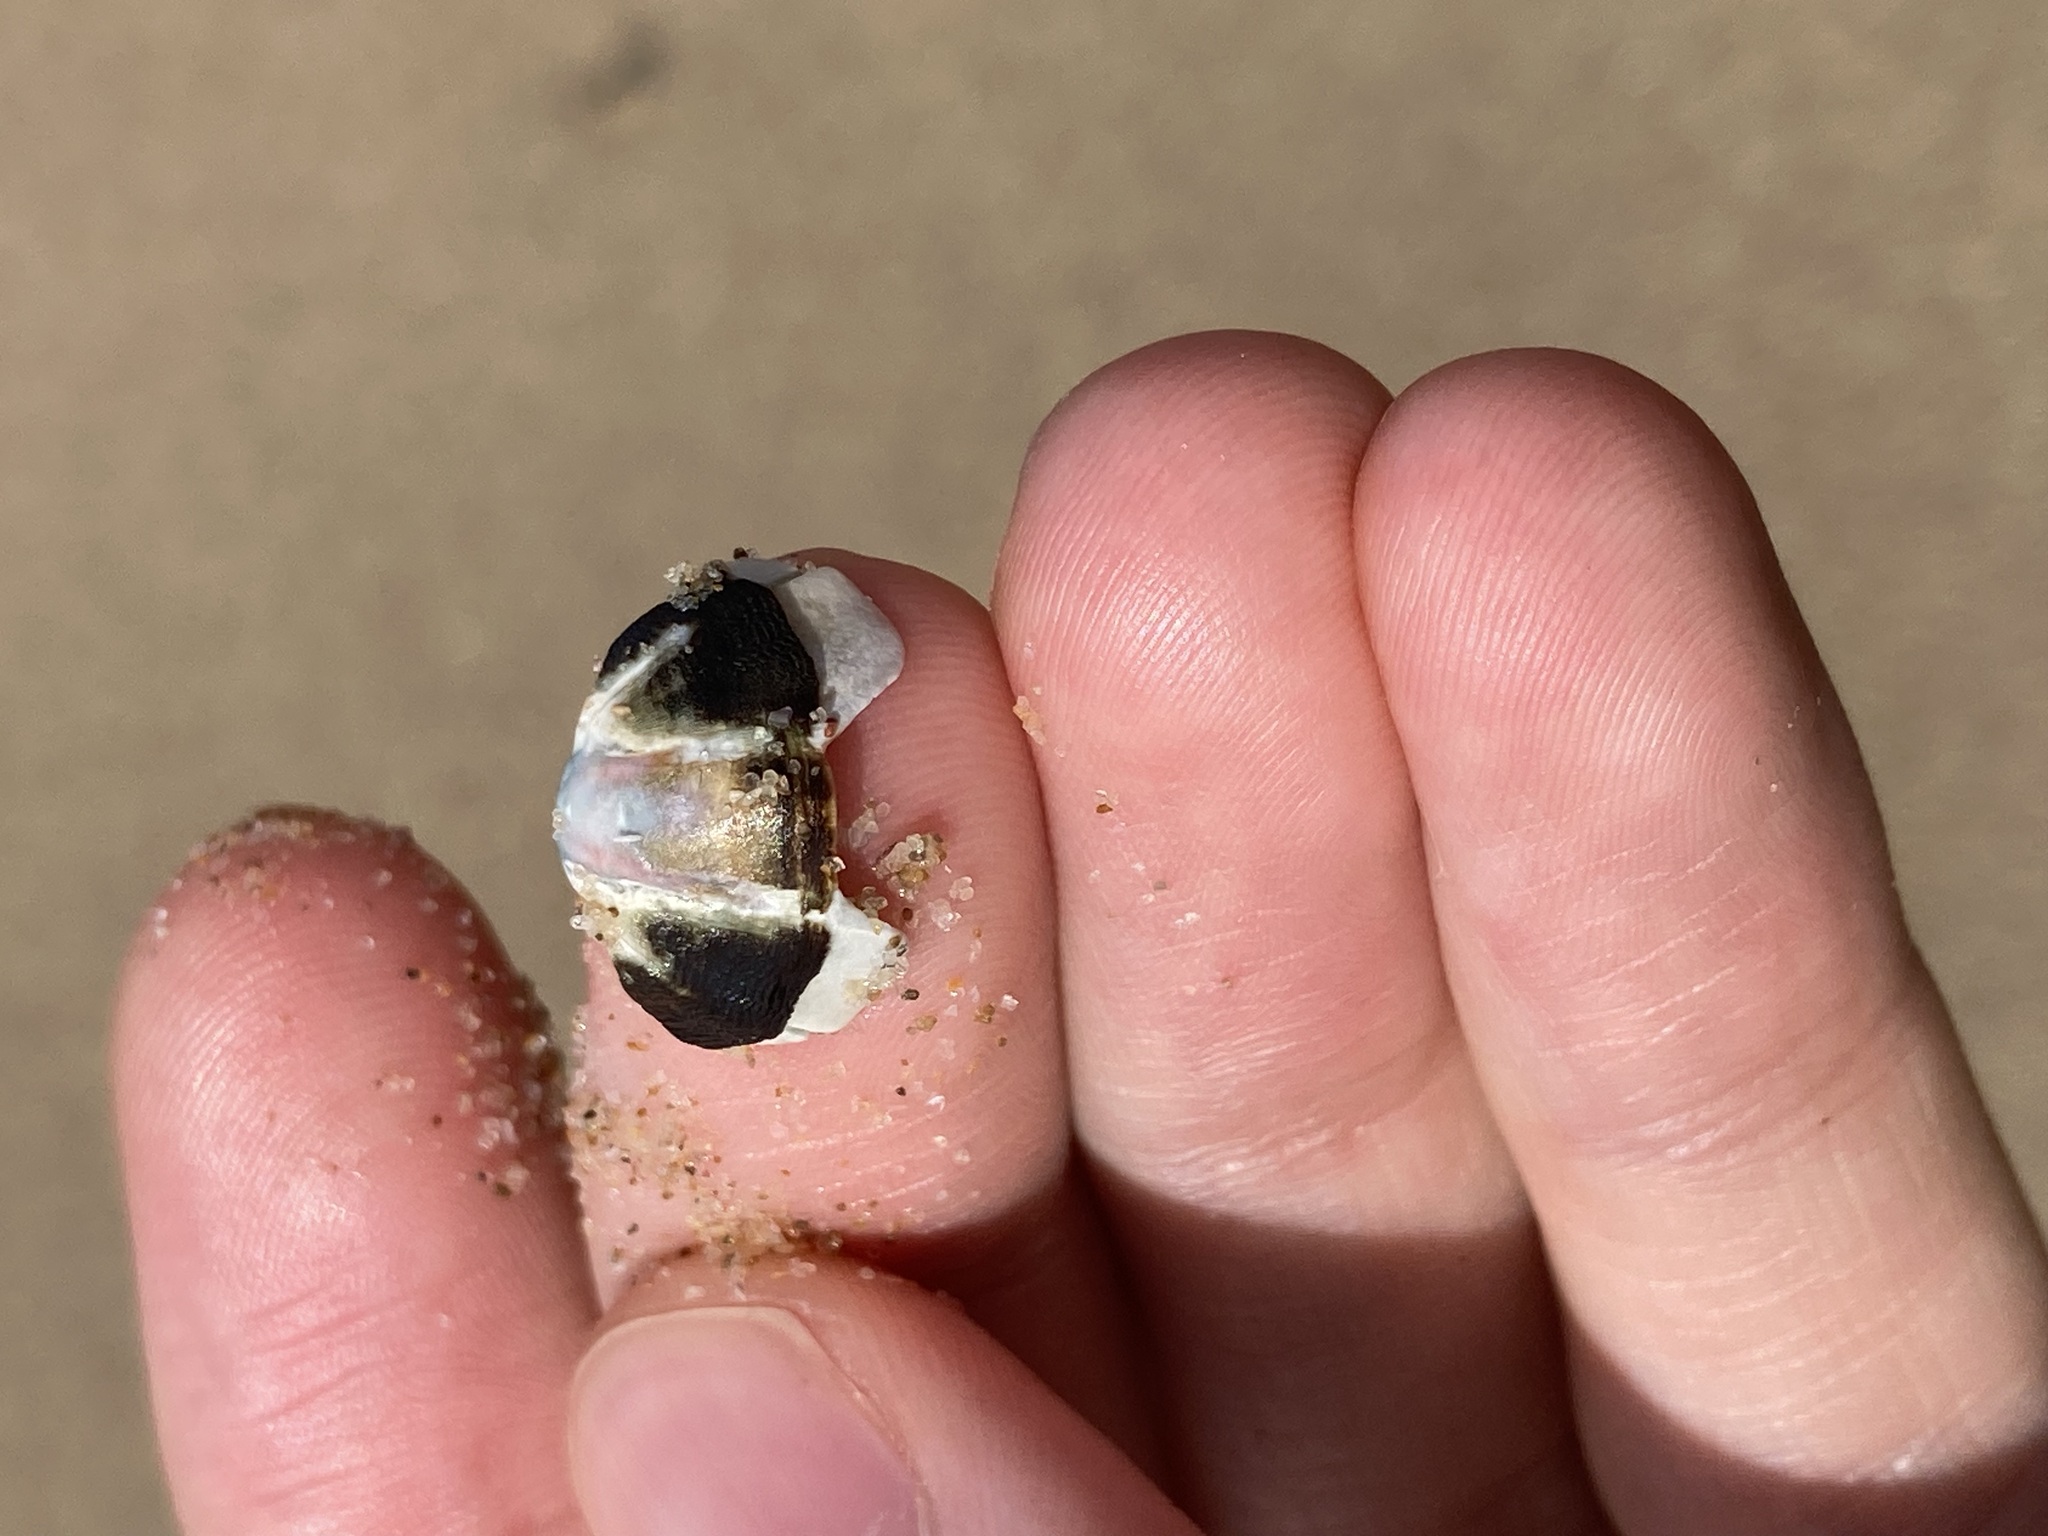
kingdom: Animalia
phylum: Mollusca
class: Polyplacophora
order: Chitonida
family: Mopaliidae
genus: Plaxiphora
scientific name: Plaxiphora albida
